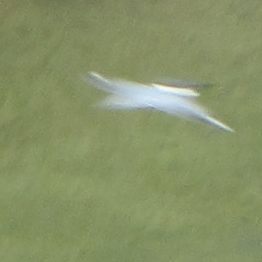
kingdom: Animalia
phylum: Chordata
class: Aves
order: Coraciiformes
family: Alcedinidae
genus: Megaceryle
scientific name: Megaceryle alcyon
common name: Belted kingfisher
